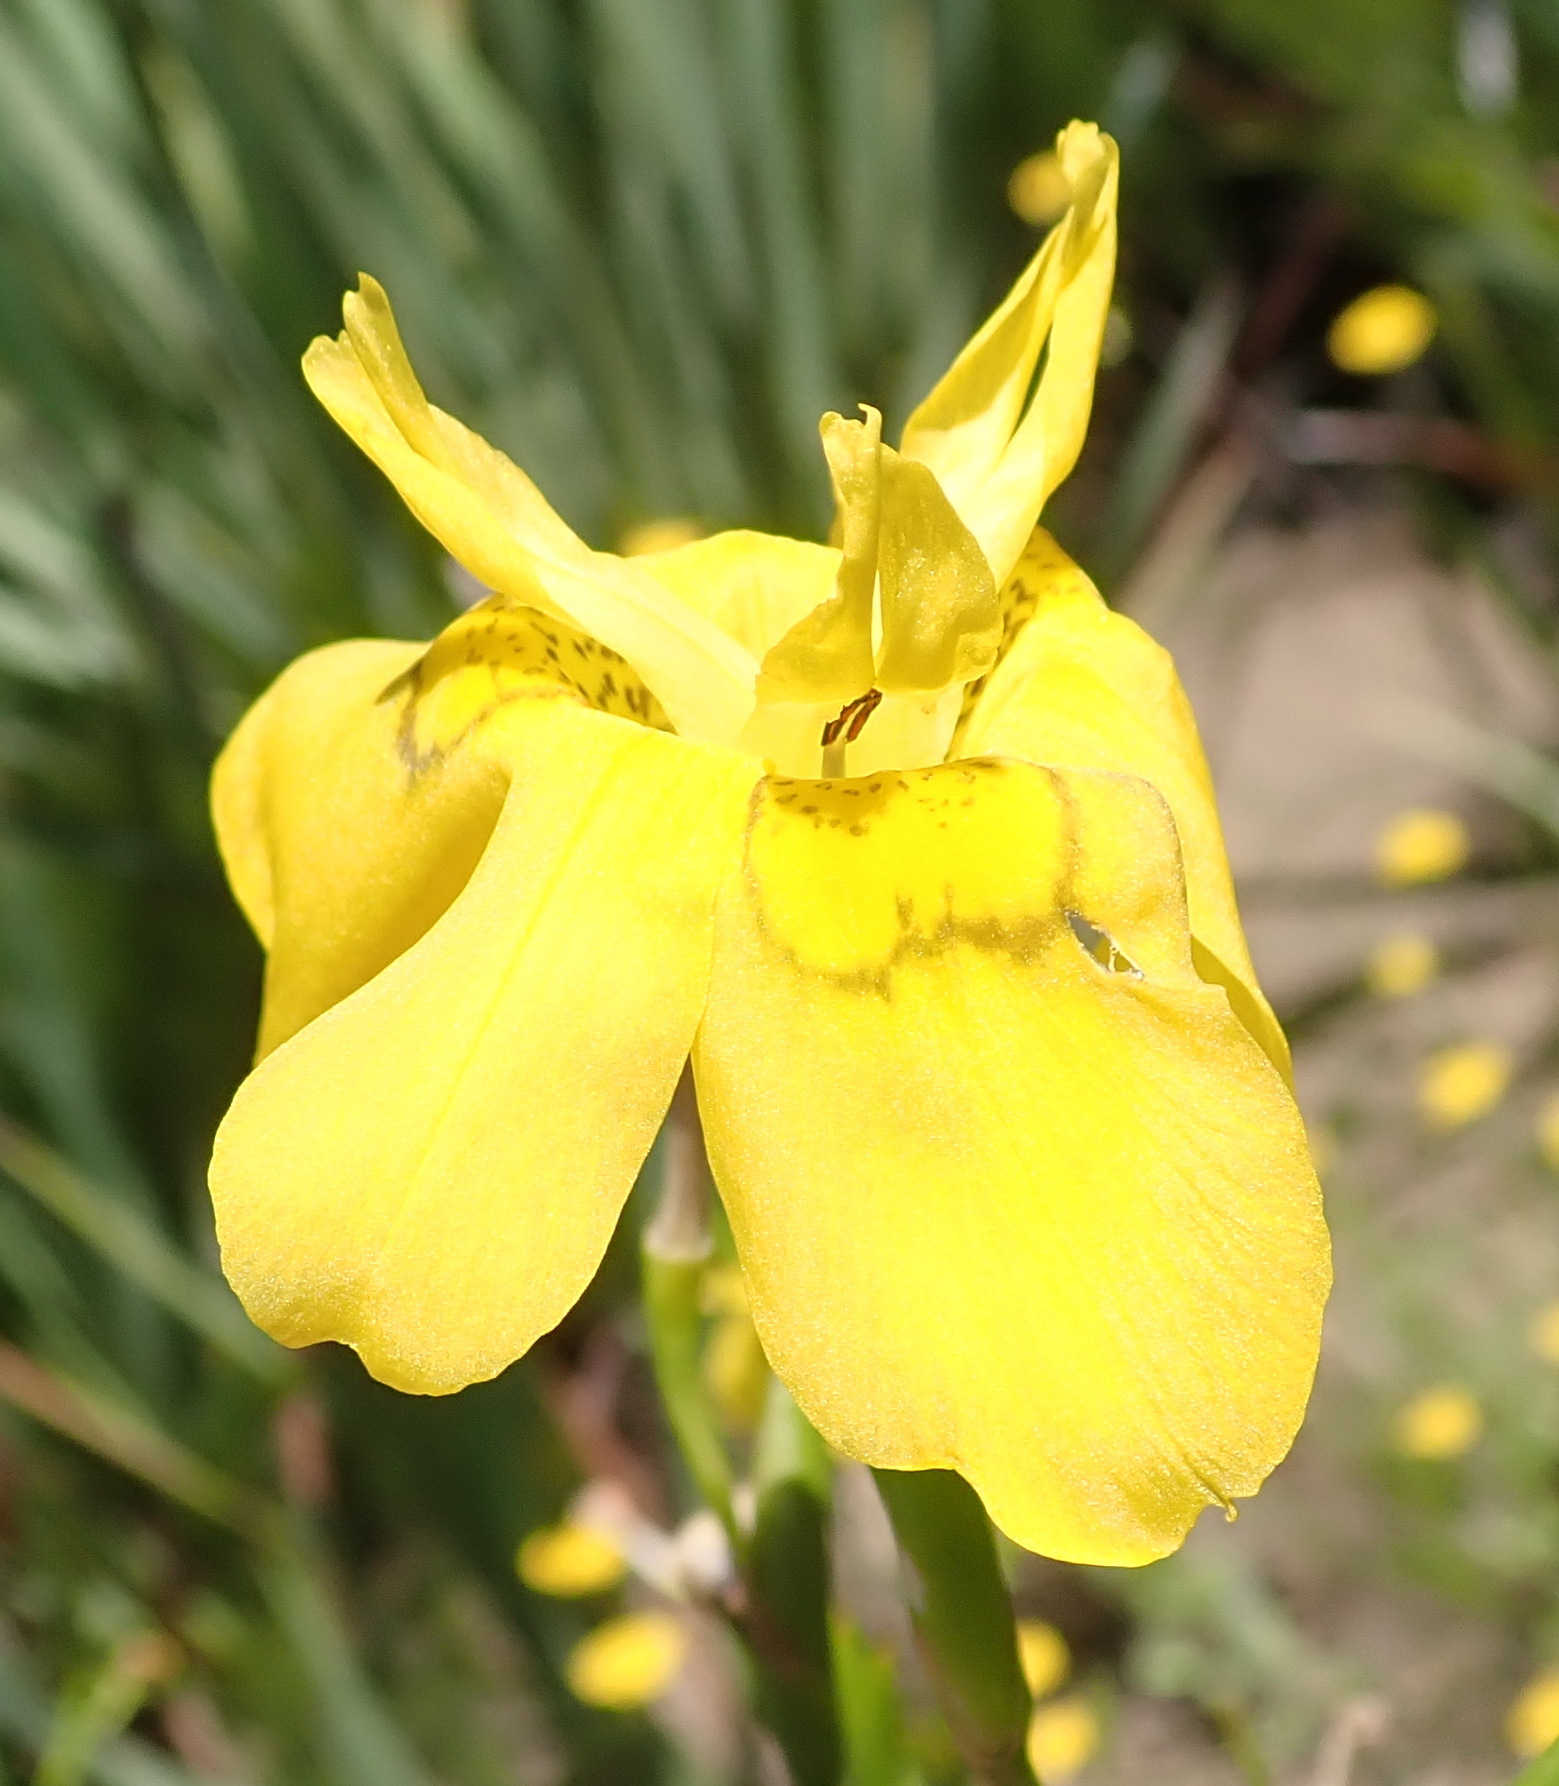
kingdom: Plantae
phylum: Tracheophyta
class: Liliopsida
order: Asparagales
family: Iridaceae
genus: Moraea
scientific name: Moraea ramosissima
